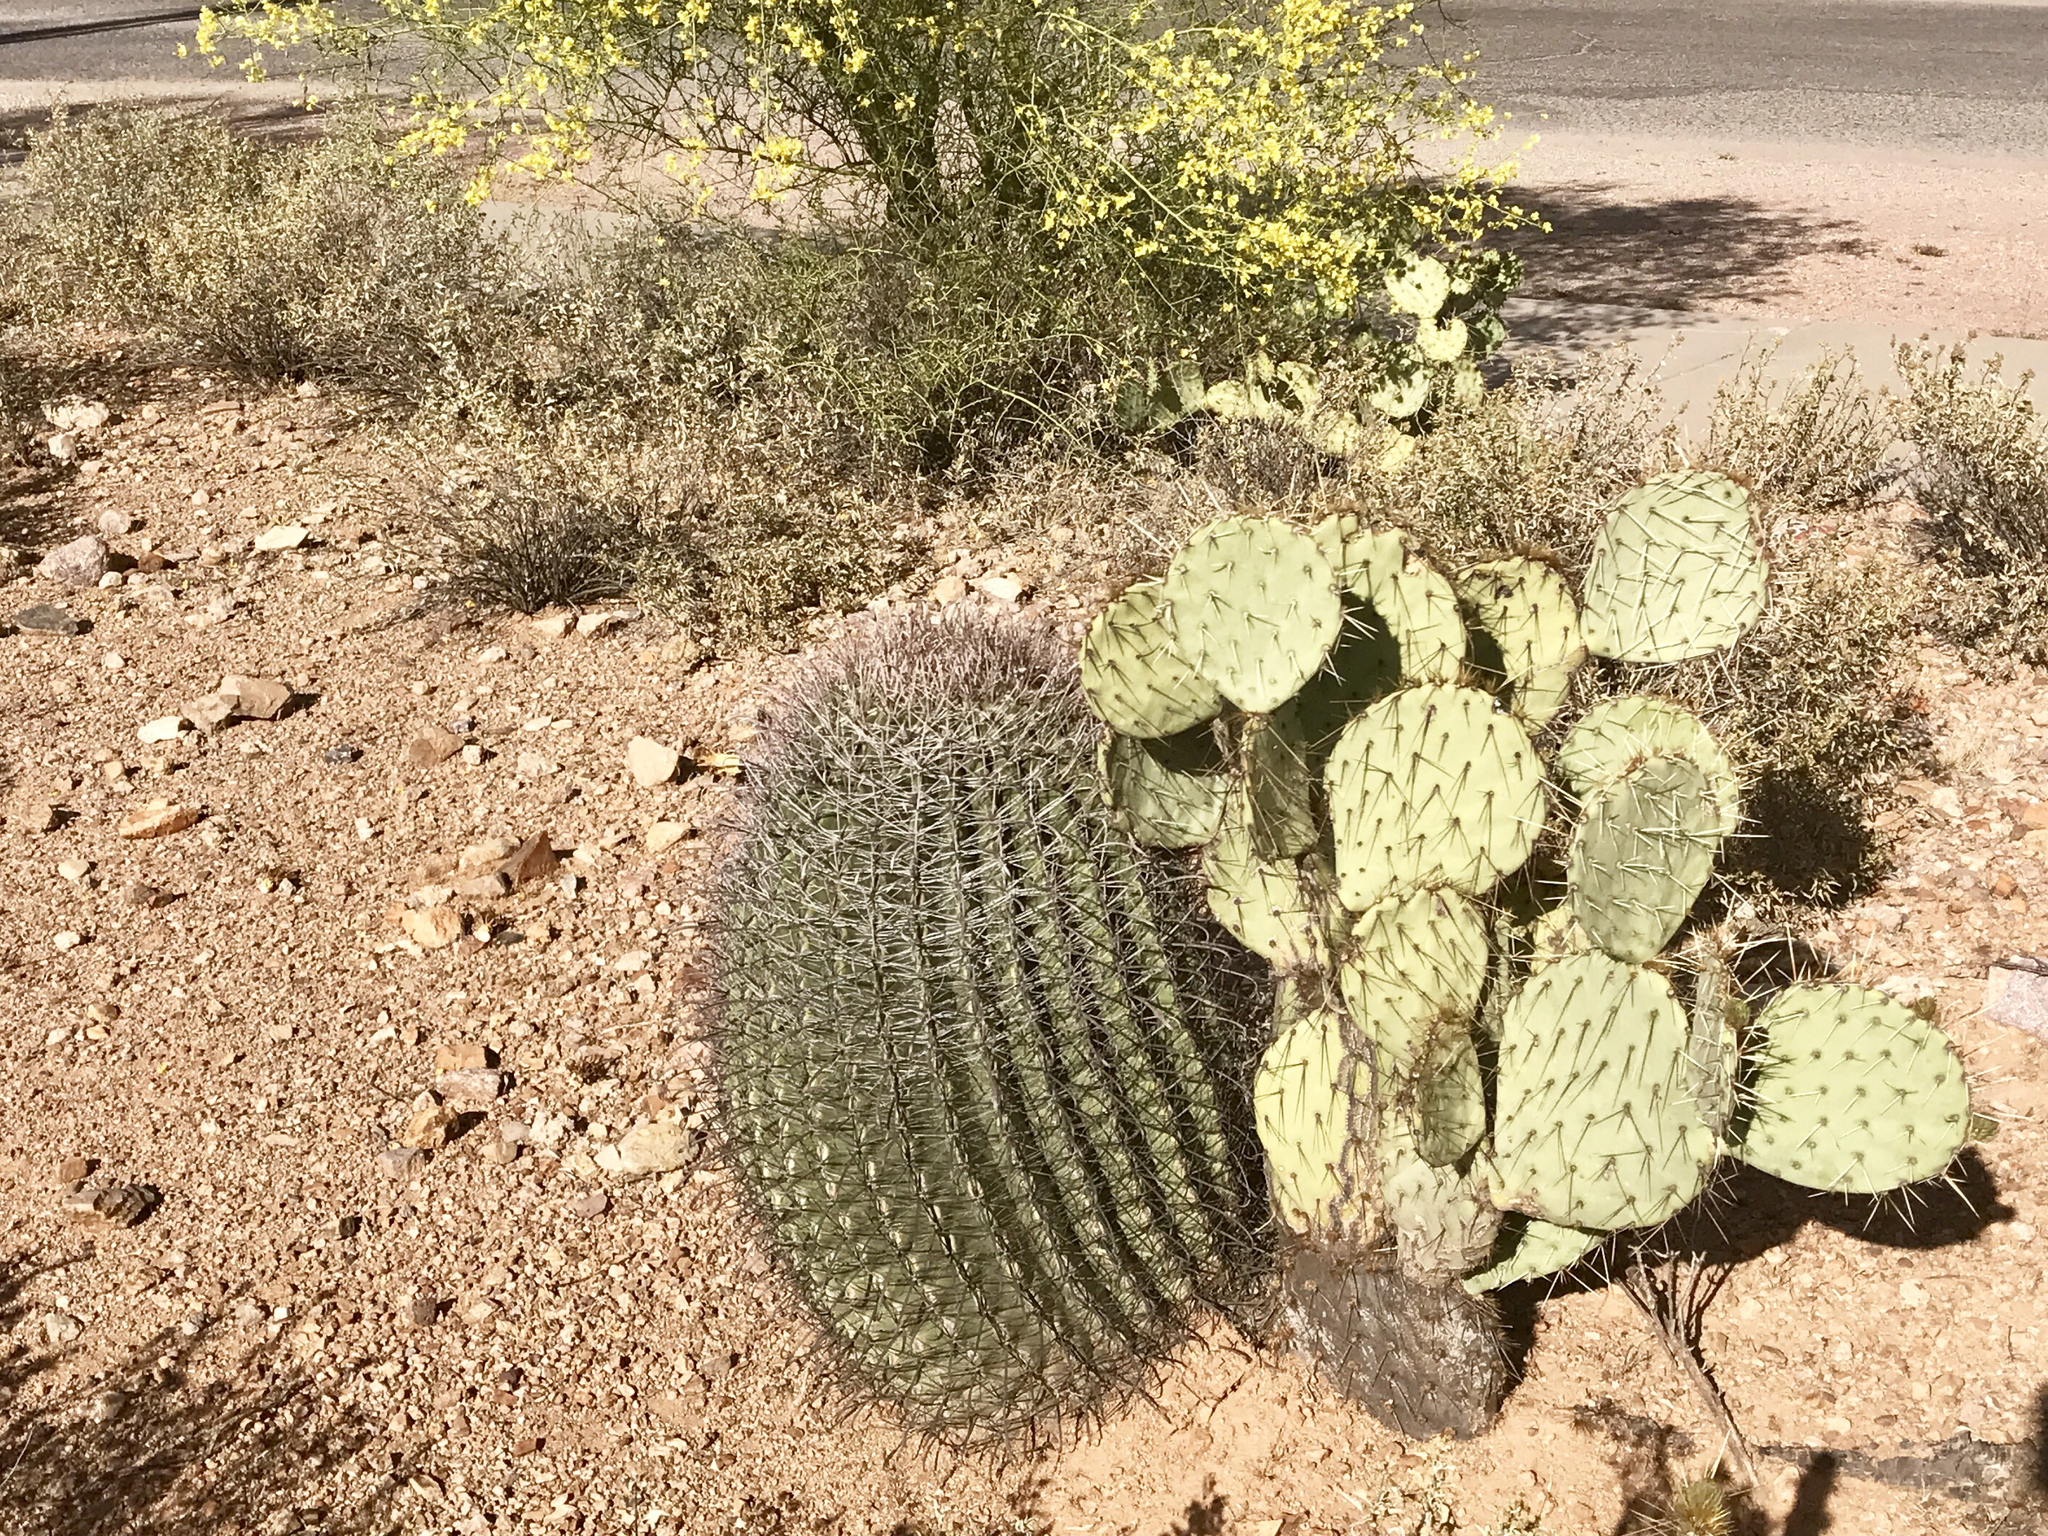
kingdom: Plantae
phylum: Tracheophyta
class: Magnoliopsida
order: Caryophyllales
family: Cactaceae
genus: Ferocactus
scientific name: Ferocactus wislizeni
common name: Candy barrel cactus
